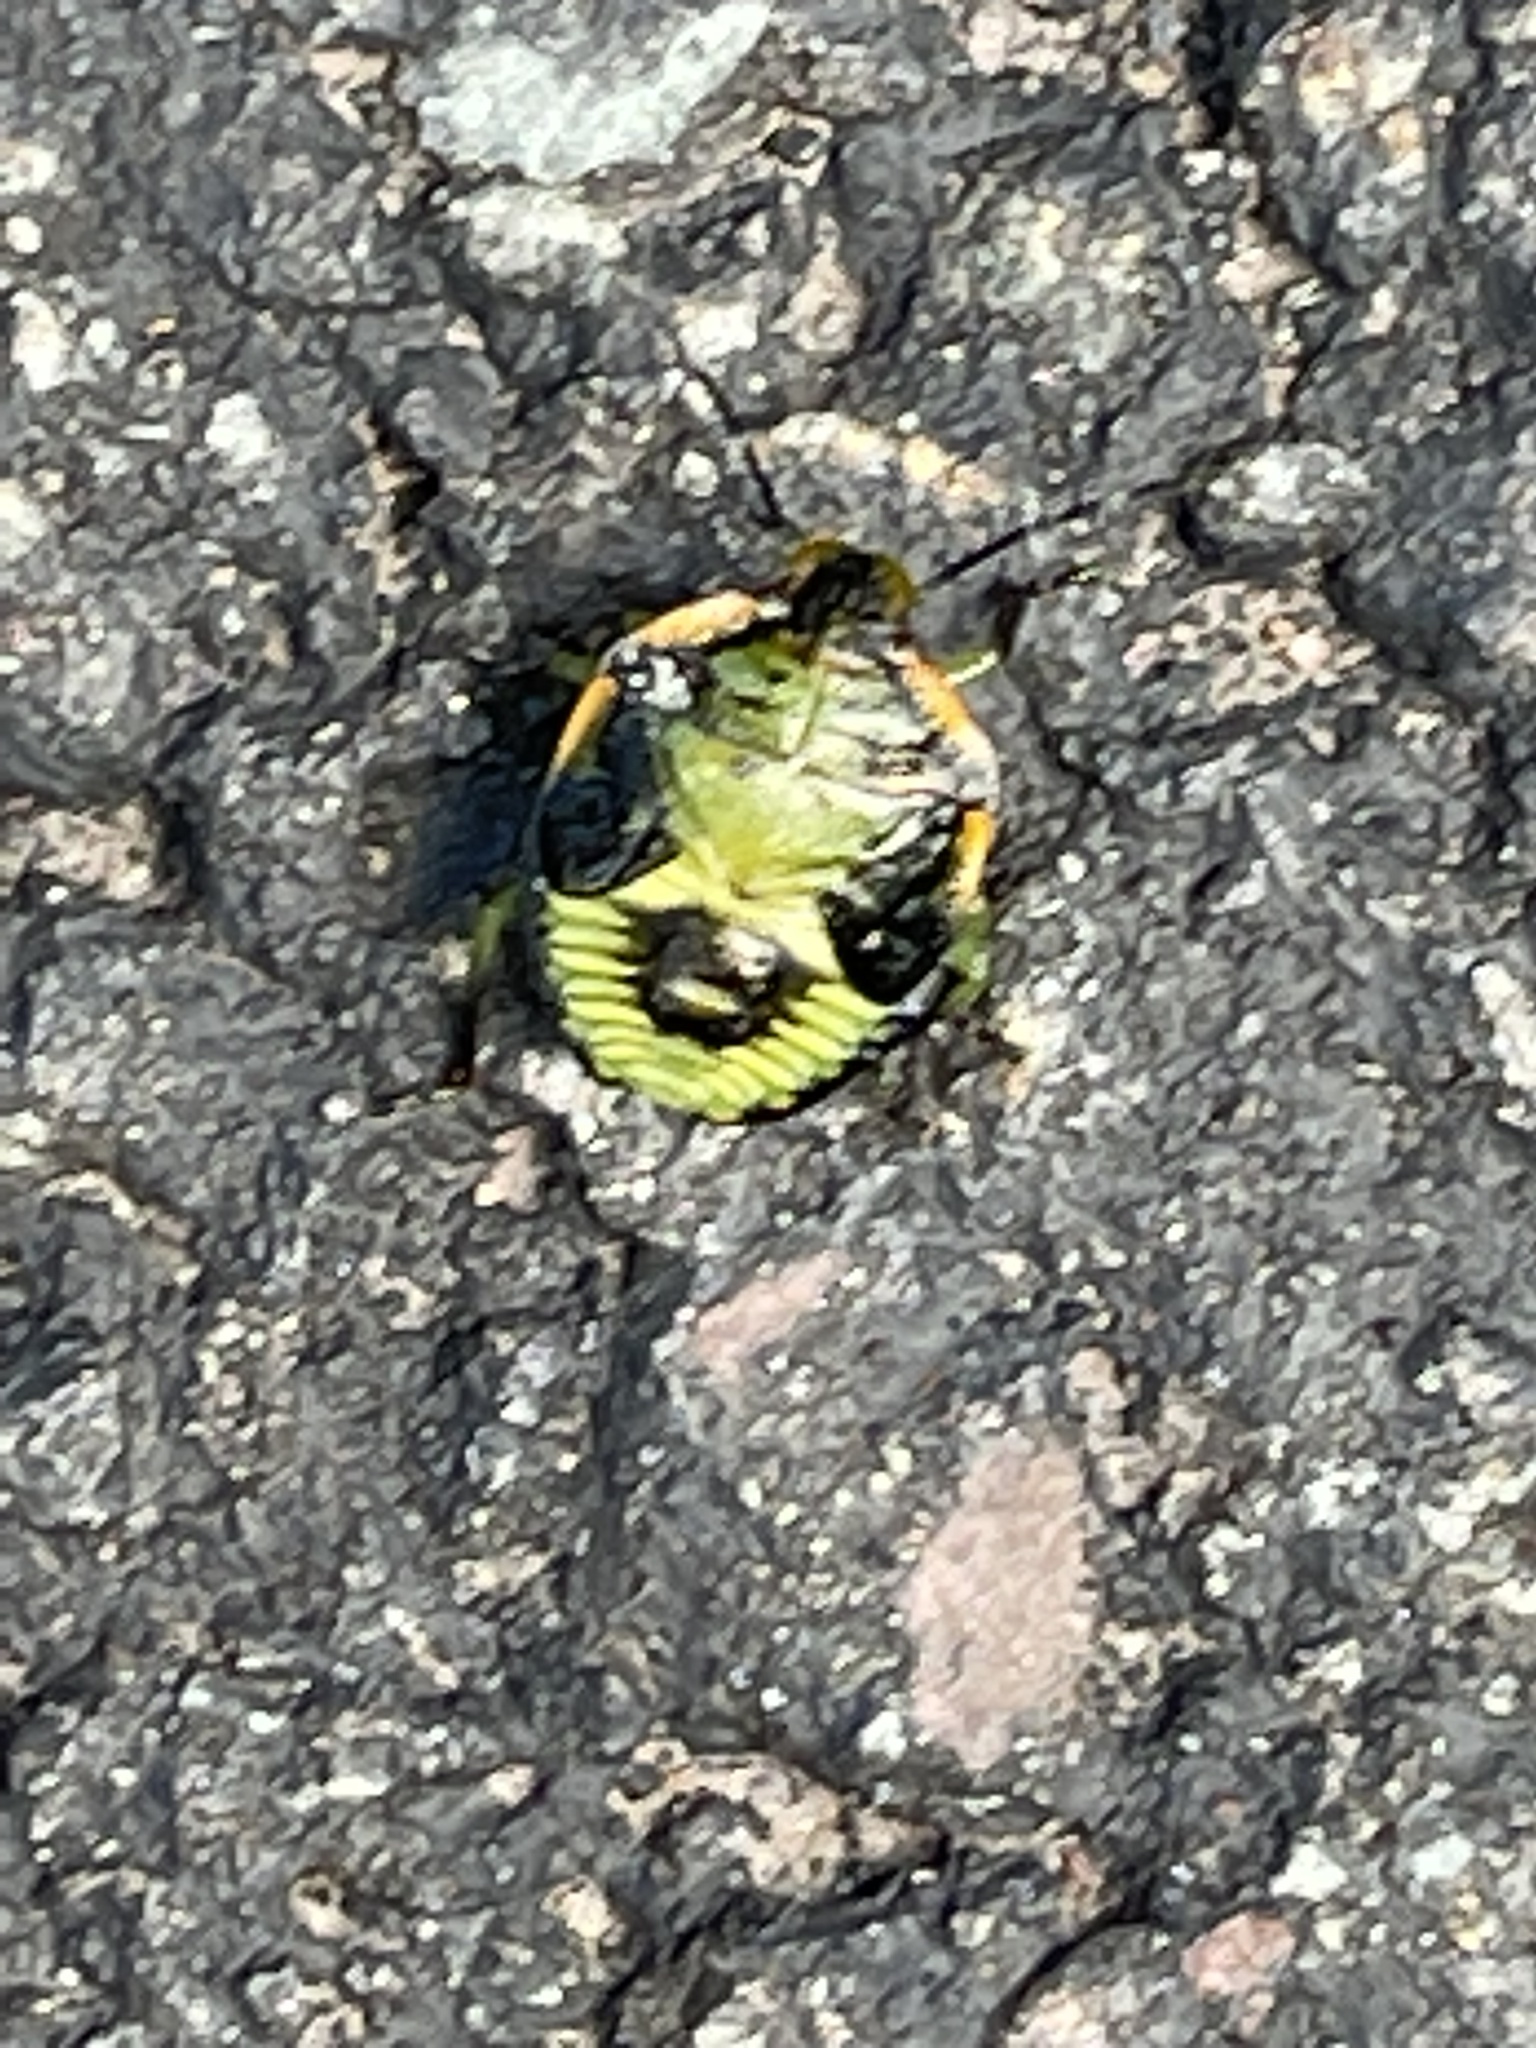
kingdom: Animalia
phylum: Arthropoda
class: Insecta
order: Hemiptera
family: Pentatomidae
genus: Chinavia
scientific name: Chinavia hilaris
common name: Green stink bug
